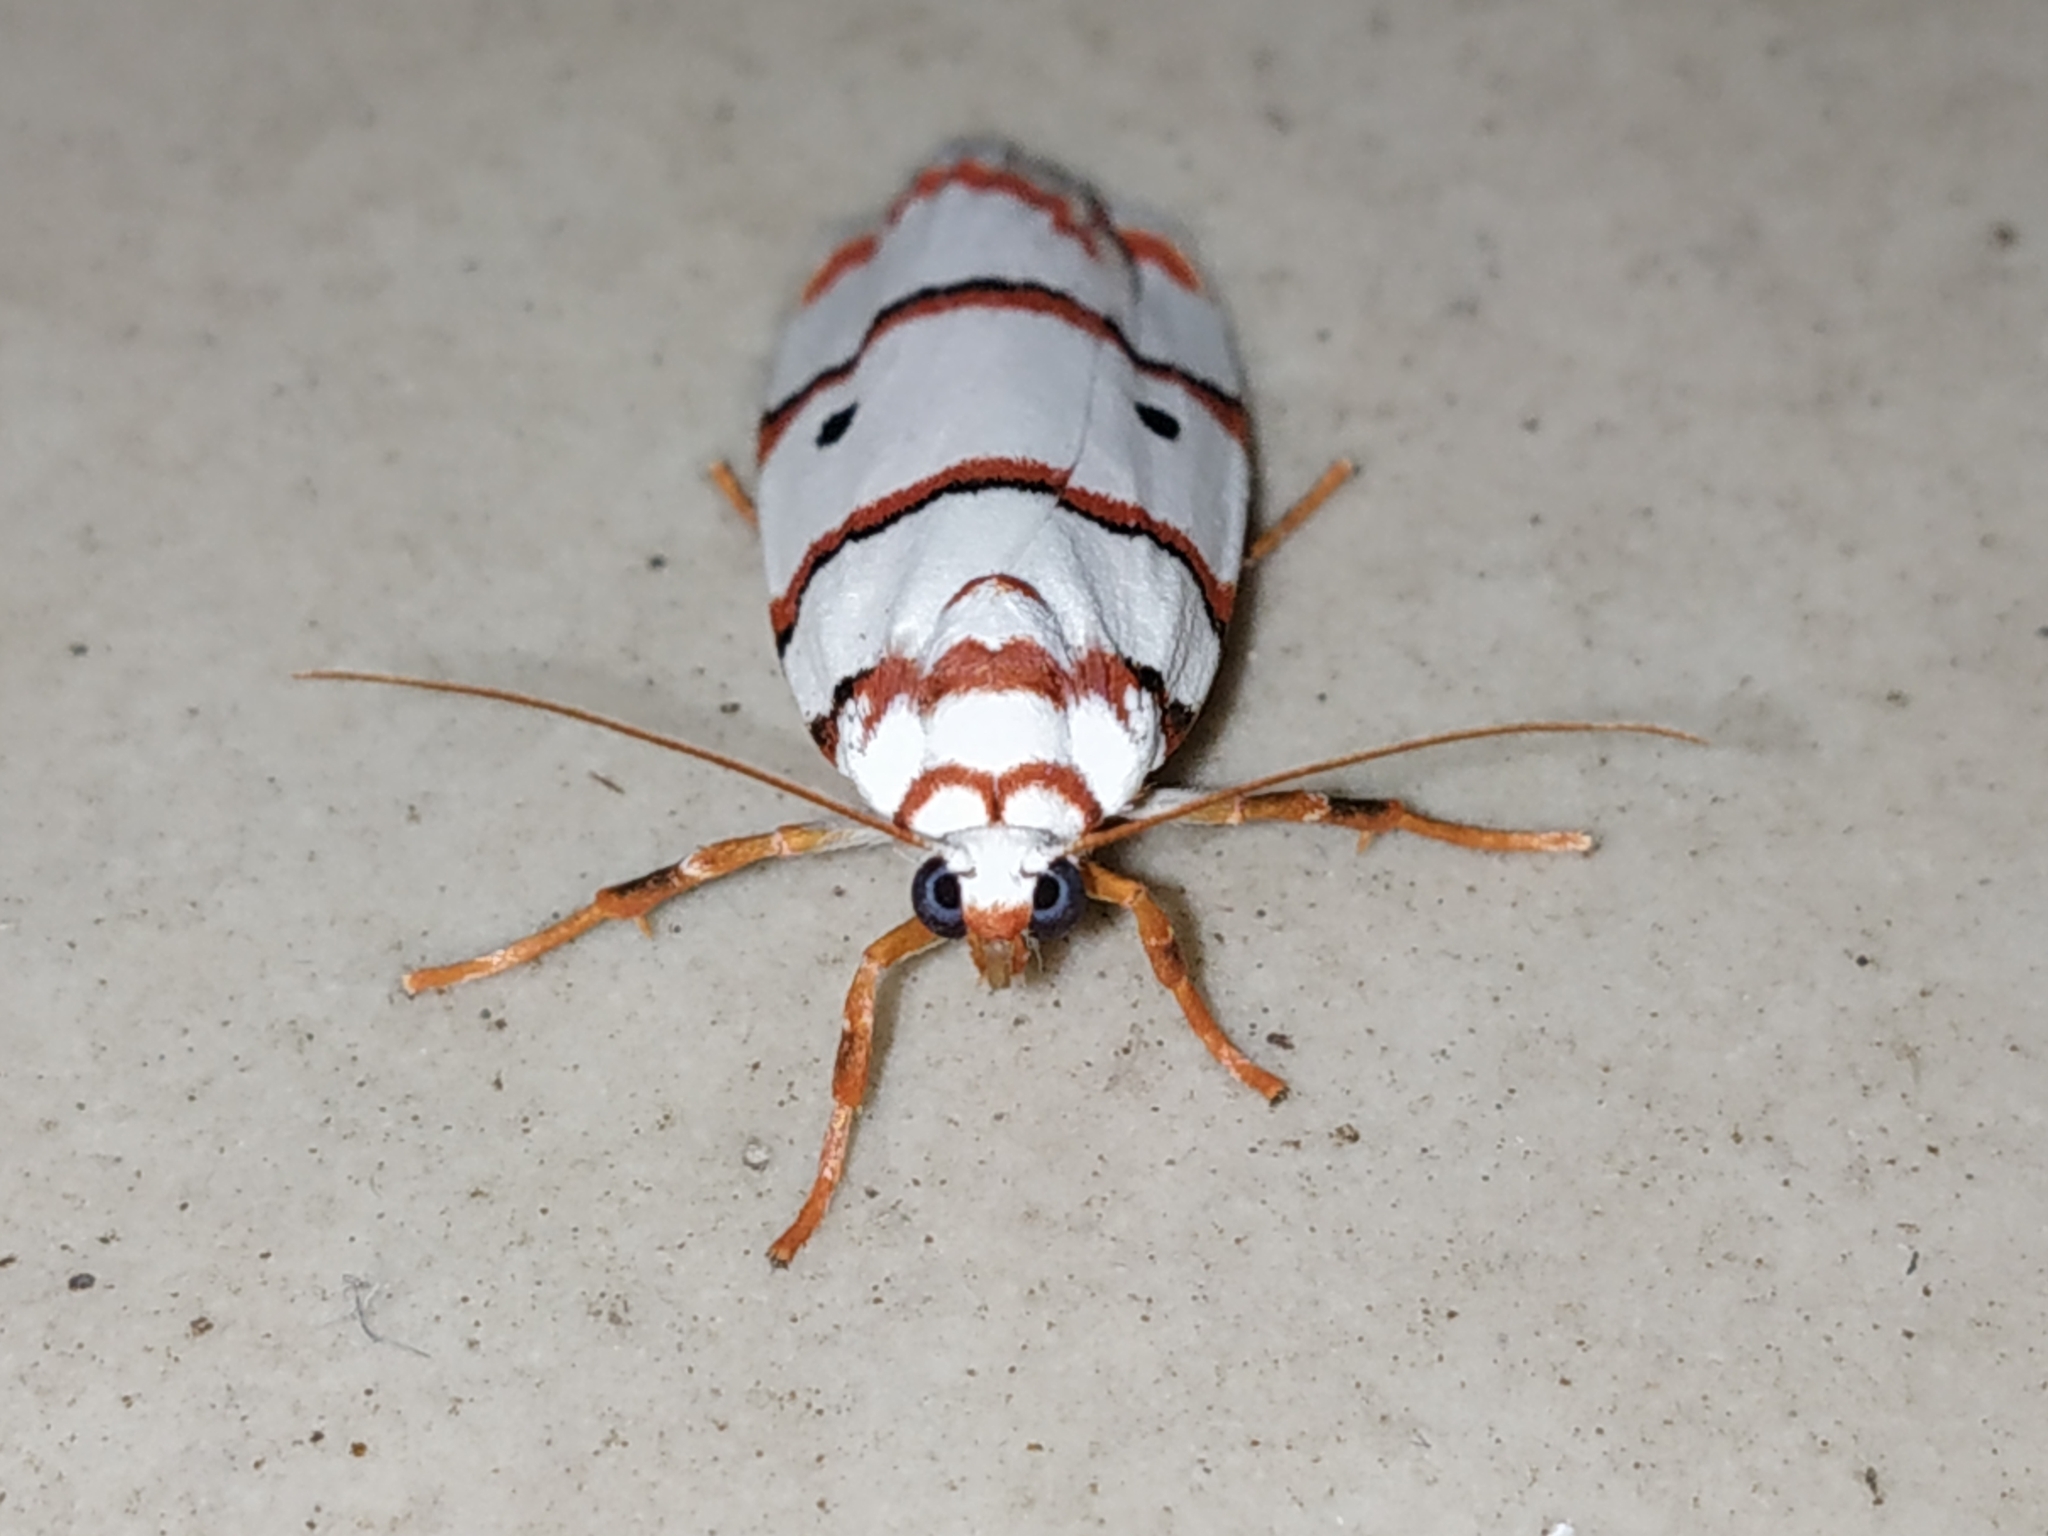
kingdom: Animalia
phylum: Arthropoda
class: Insecta
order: Lepidoptera
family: Erebidae
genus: Cyana
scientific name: Cyana peregrina
